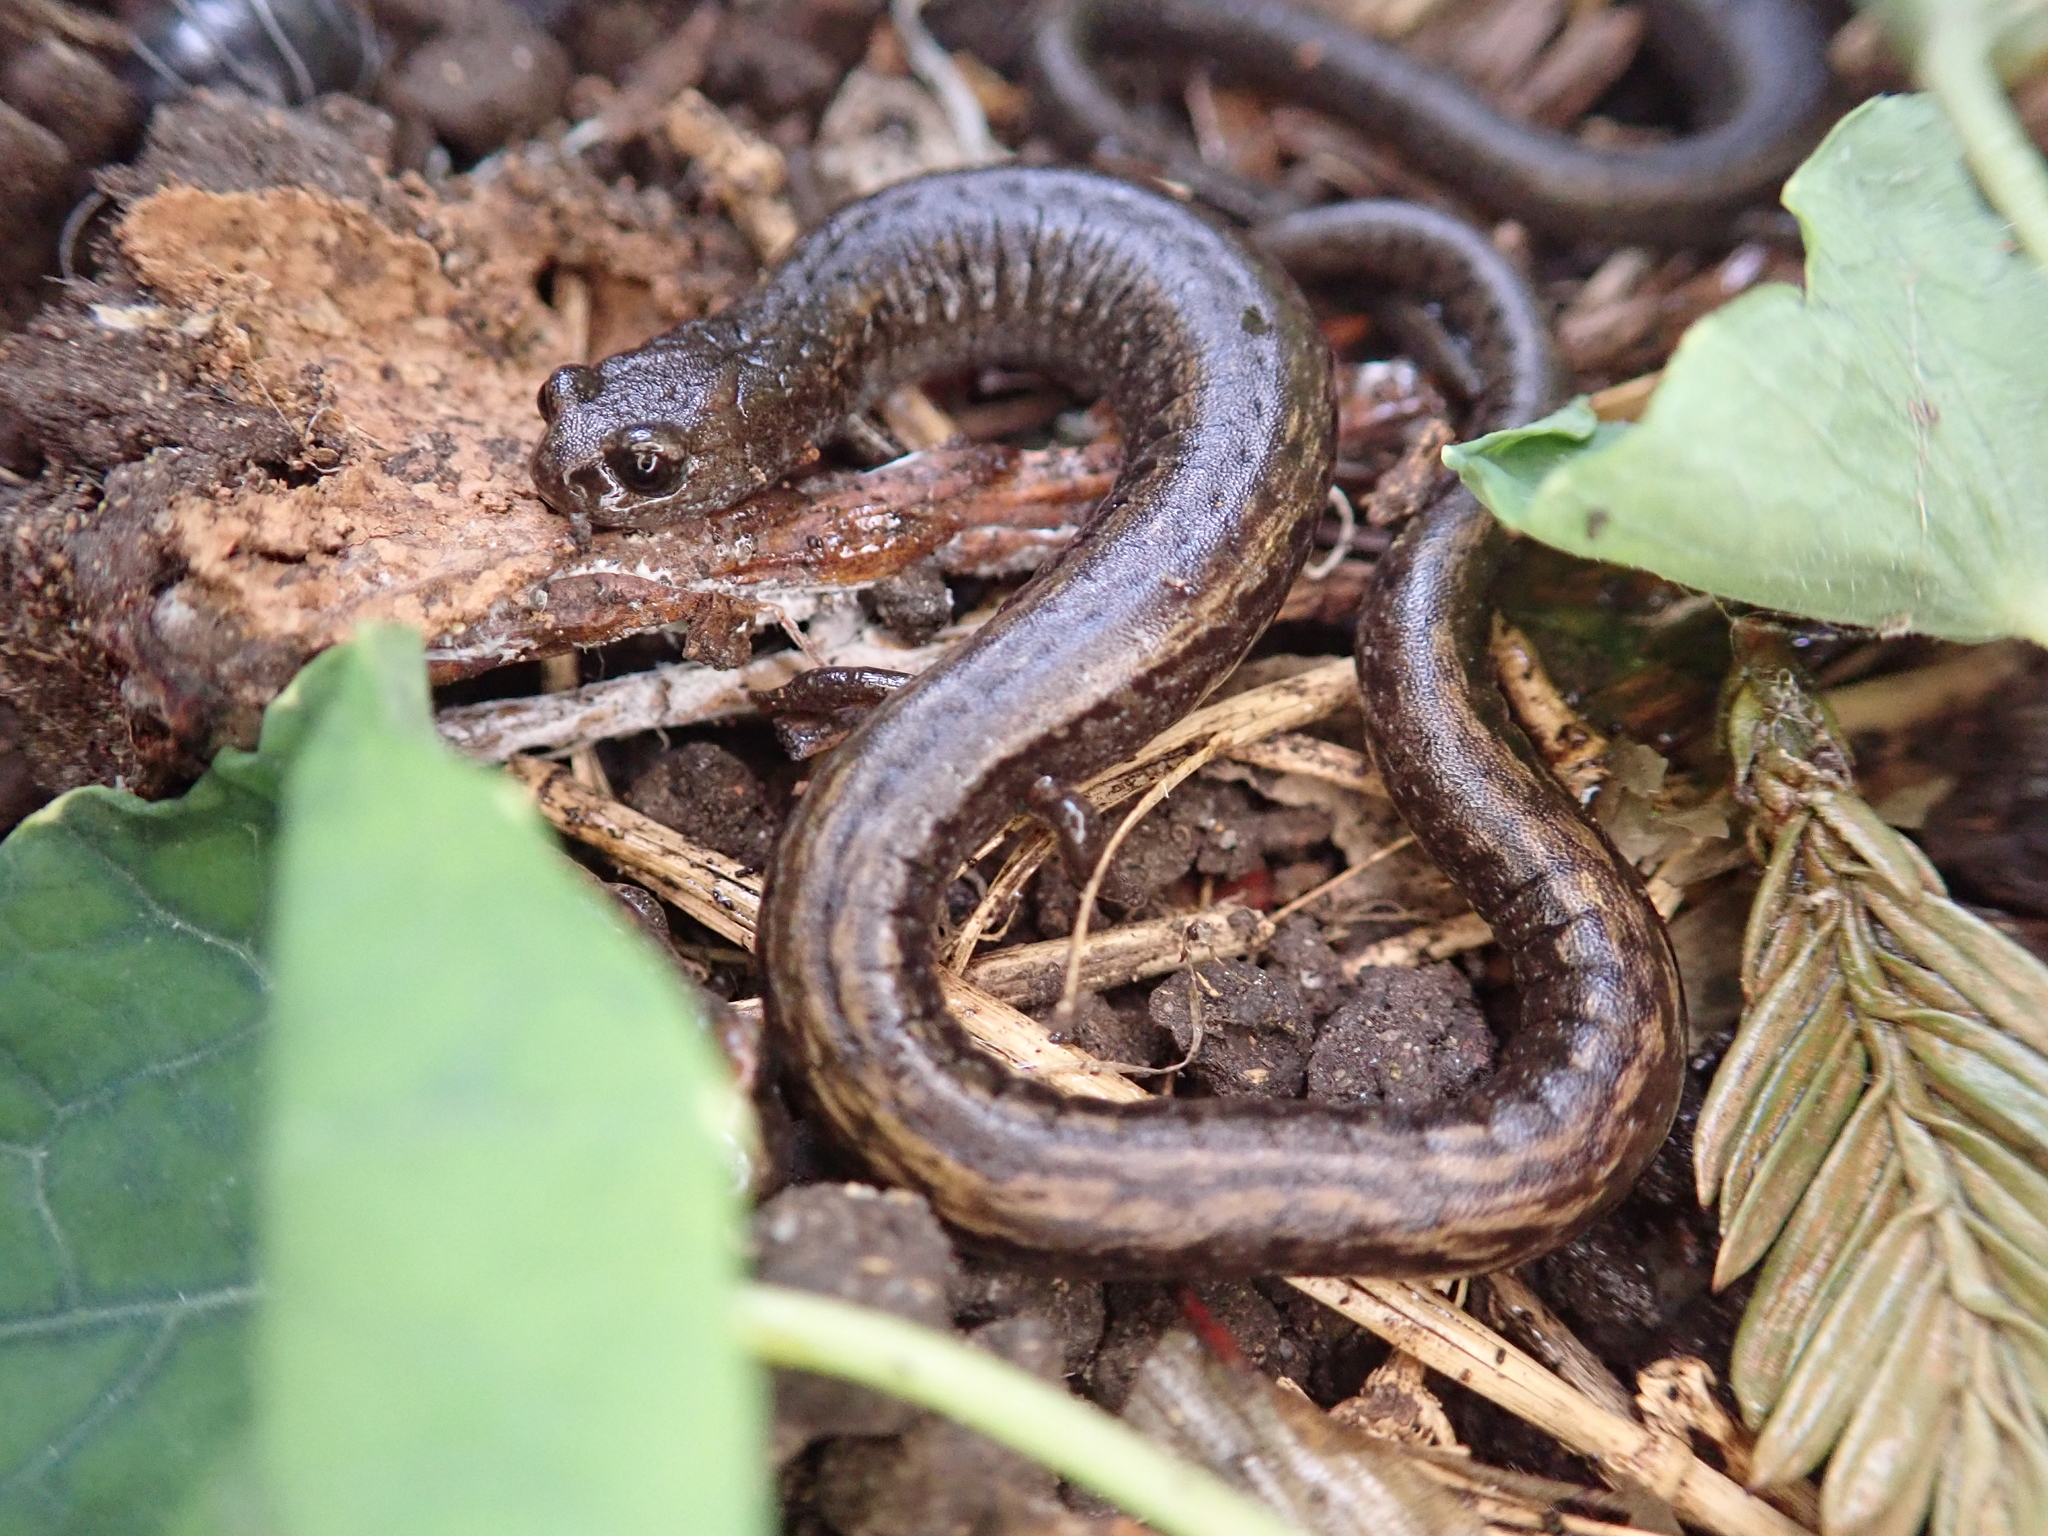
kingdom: Animalia
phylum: Chordata
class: Amphibia
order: Caudata
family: Plethodontidae
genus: Batrachoseps
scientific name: Batrachoseps attenuatus
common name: California slender salamander
